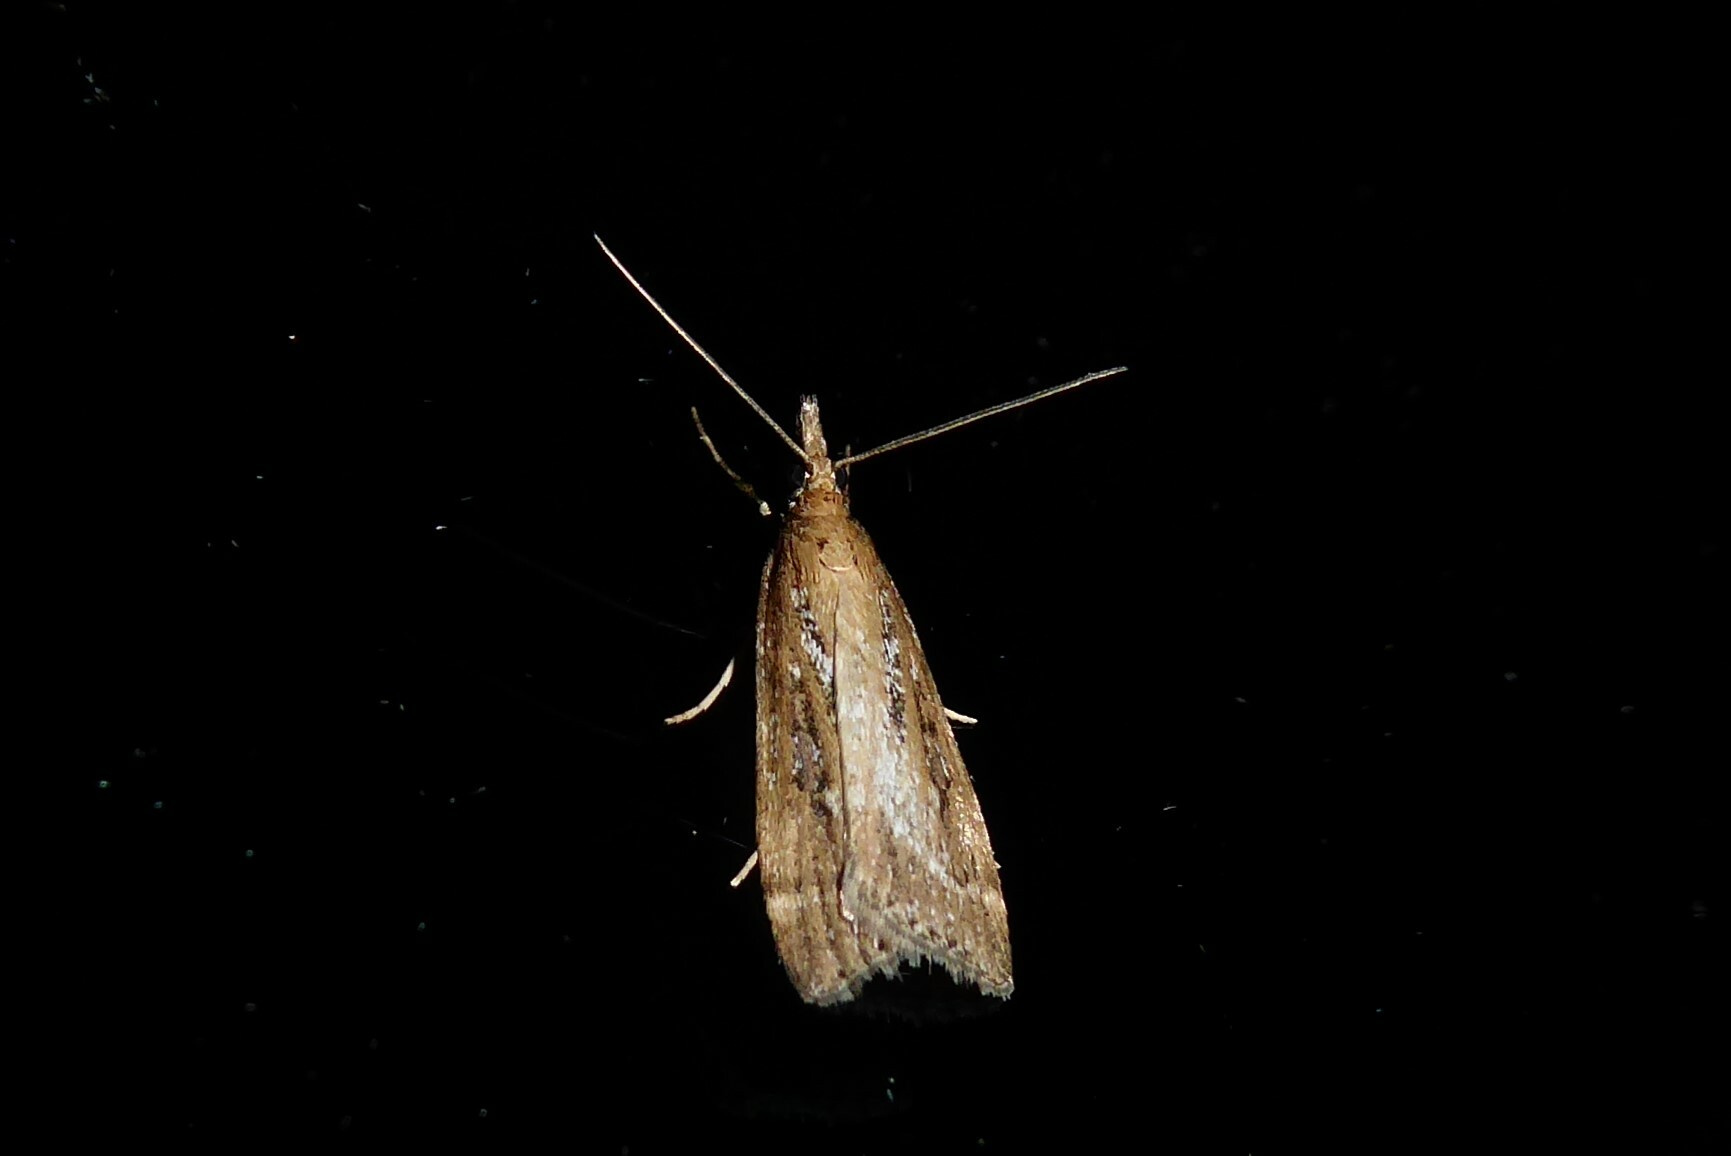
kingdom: Animalia
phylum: Arthropoda
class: Insecta
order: Lepidoptera
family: Crambidae
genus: Eudonia
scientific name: Eudonia octophora
